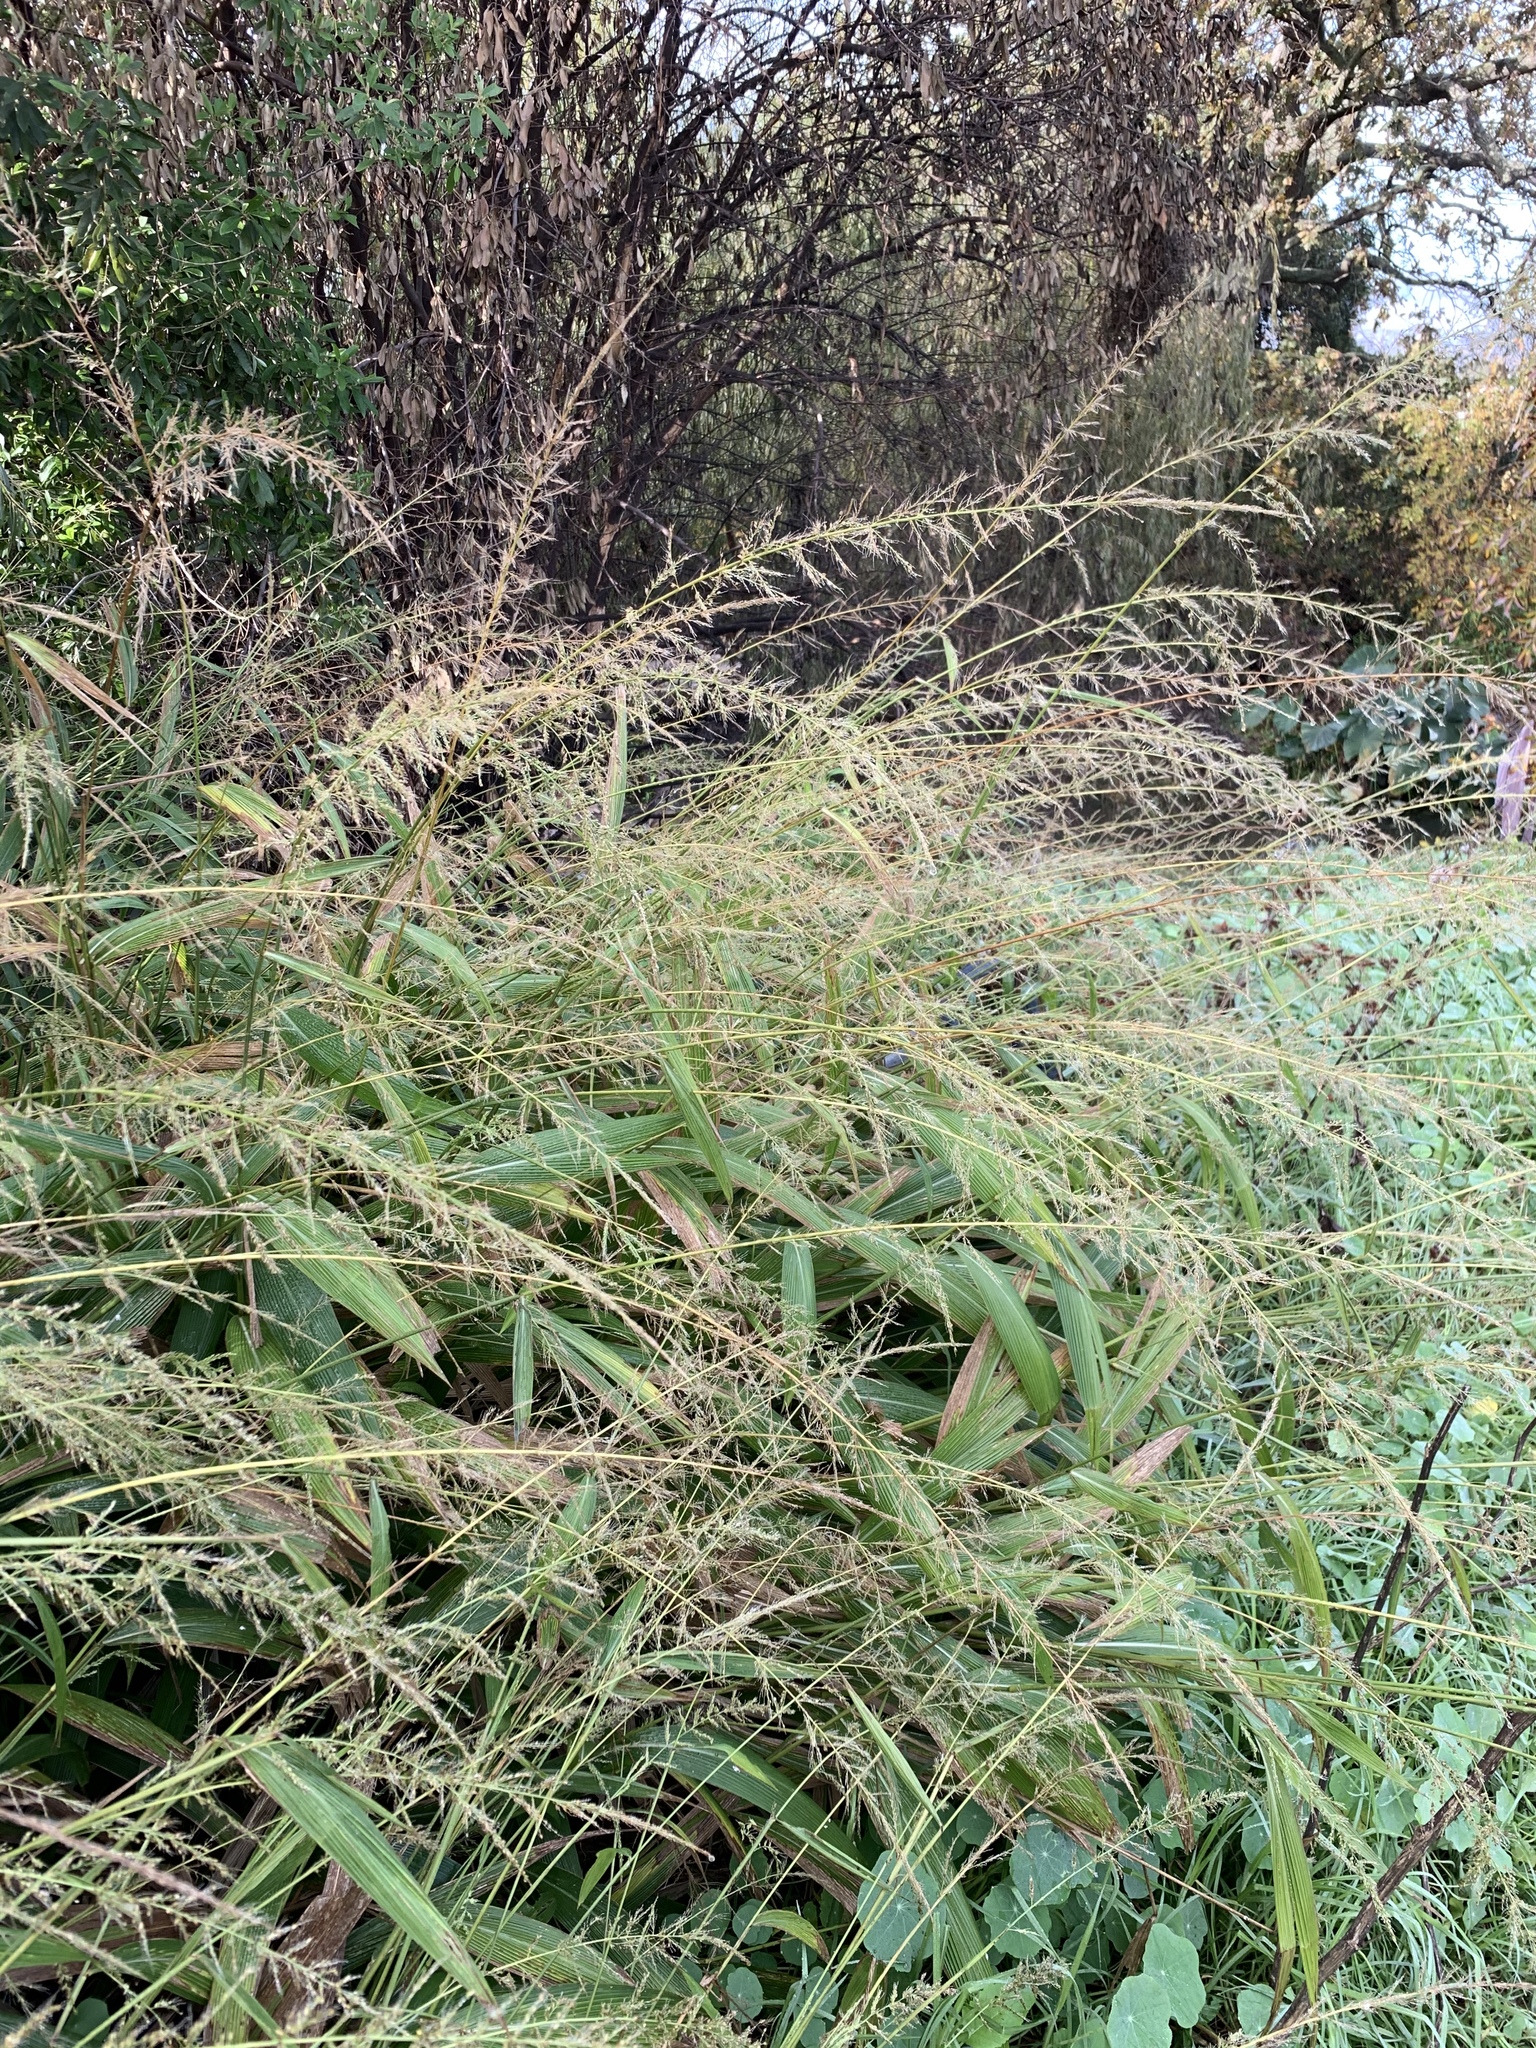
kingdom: Plantae
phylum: Tracheophyta
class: Liliopsida
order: Poales
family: Poaceae
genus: Setaria
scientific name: Setaria megaphylla
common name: Bigleaf bristlegrass
